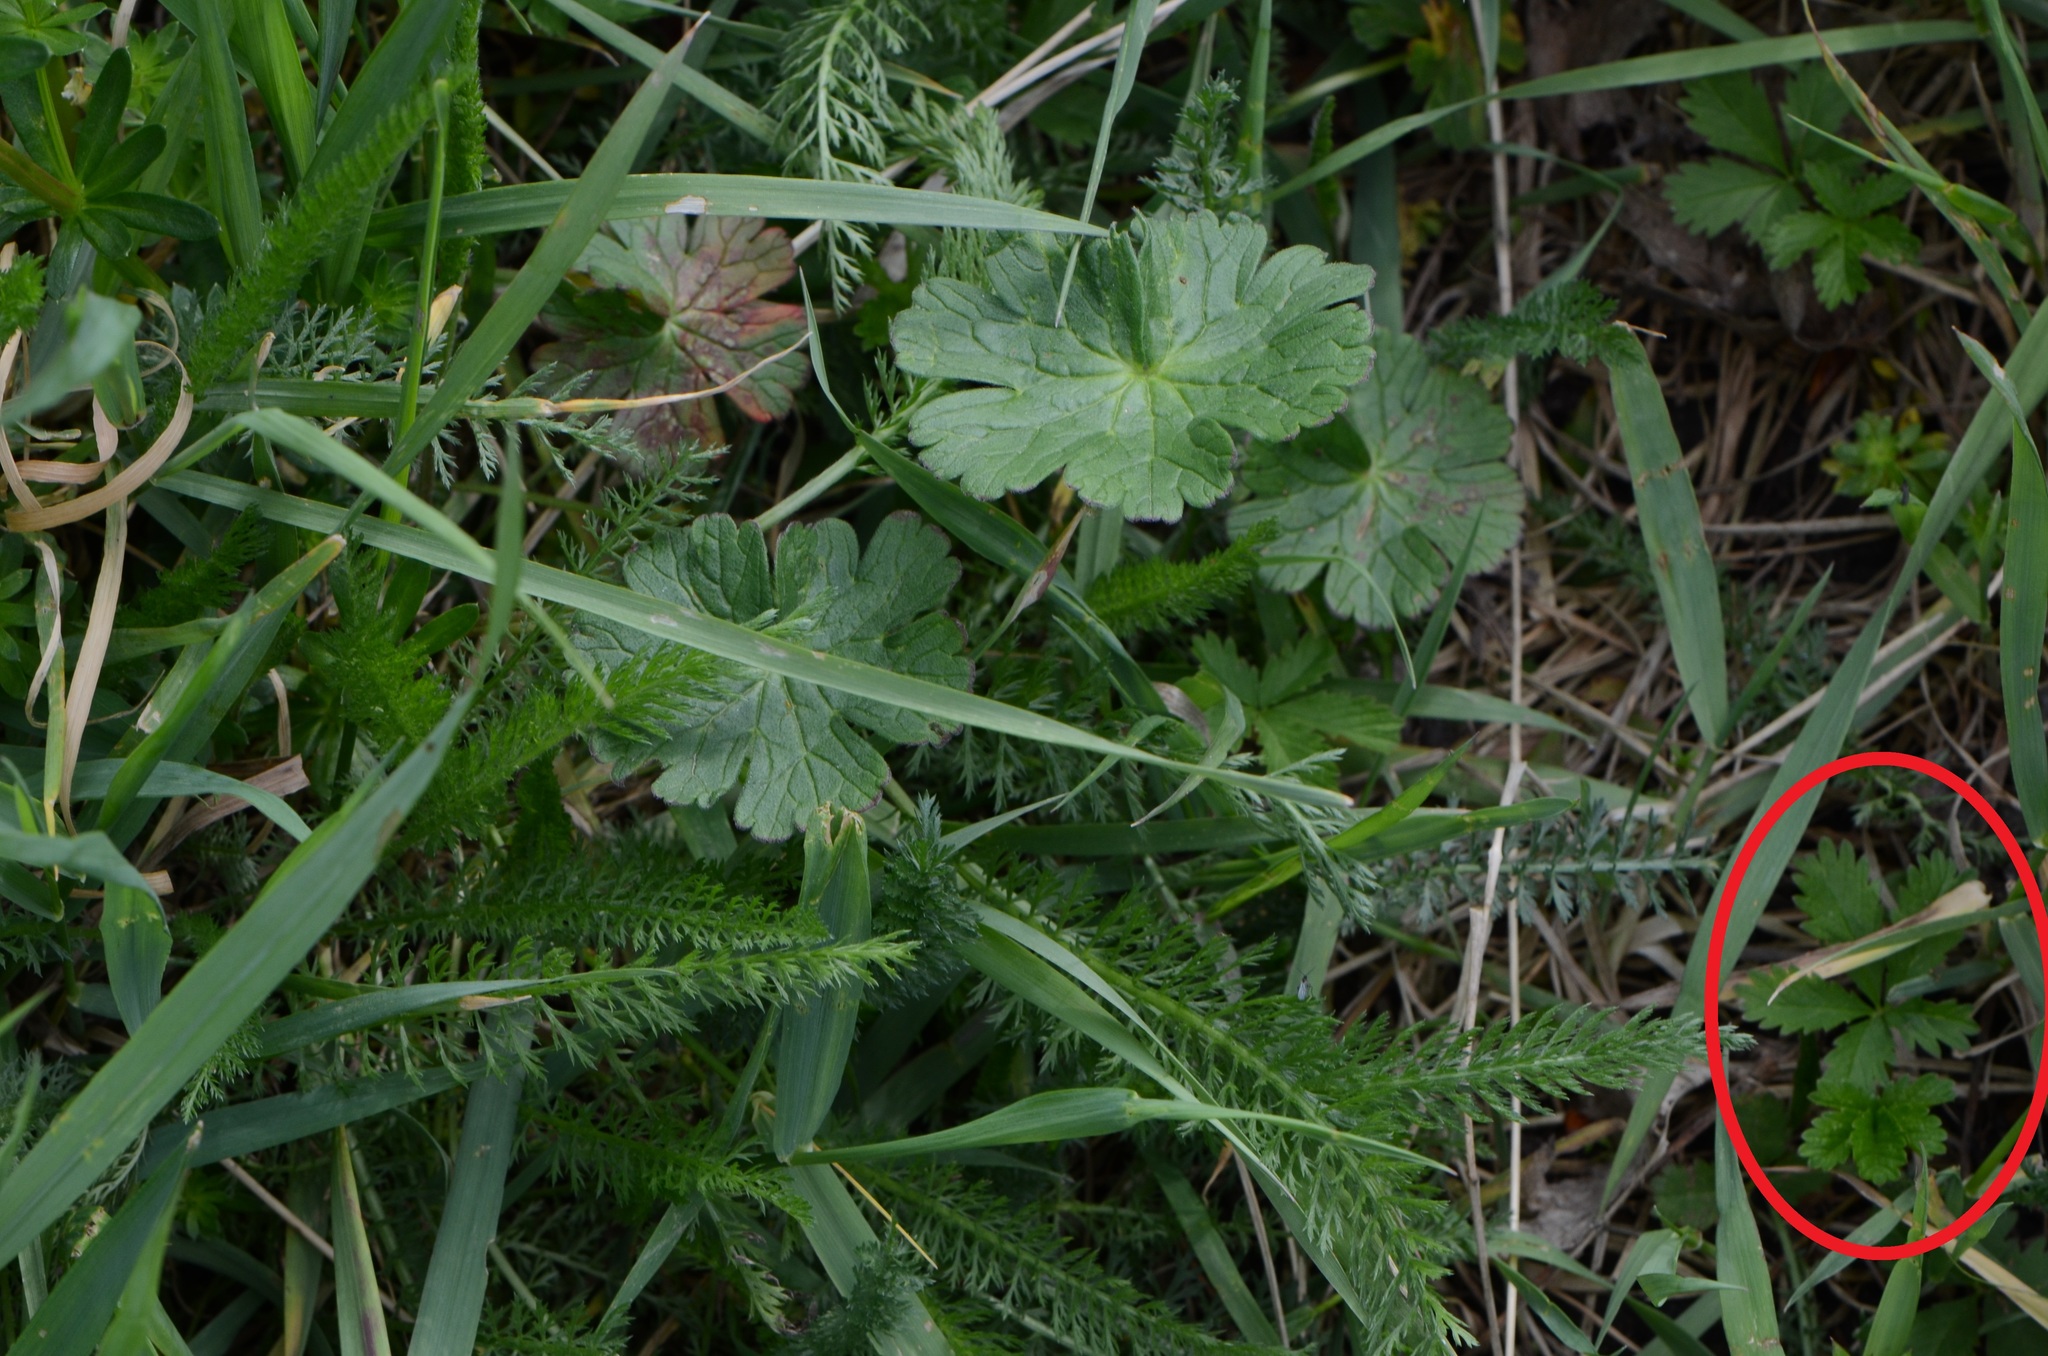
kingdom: Plantae
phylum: Tracheophyta
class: Magnoliopsida
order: Rosales
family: Rosaceae
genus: Potentilla
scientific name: Potentilla reptans
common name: Creeping cinquefoil
